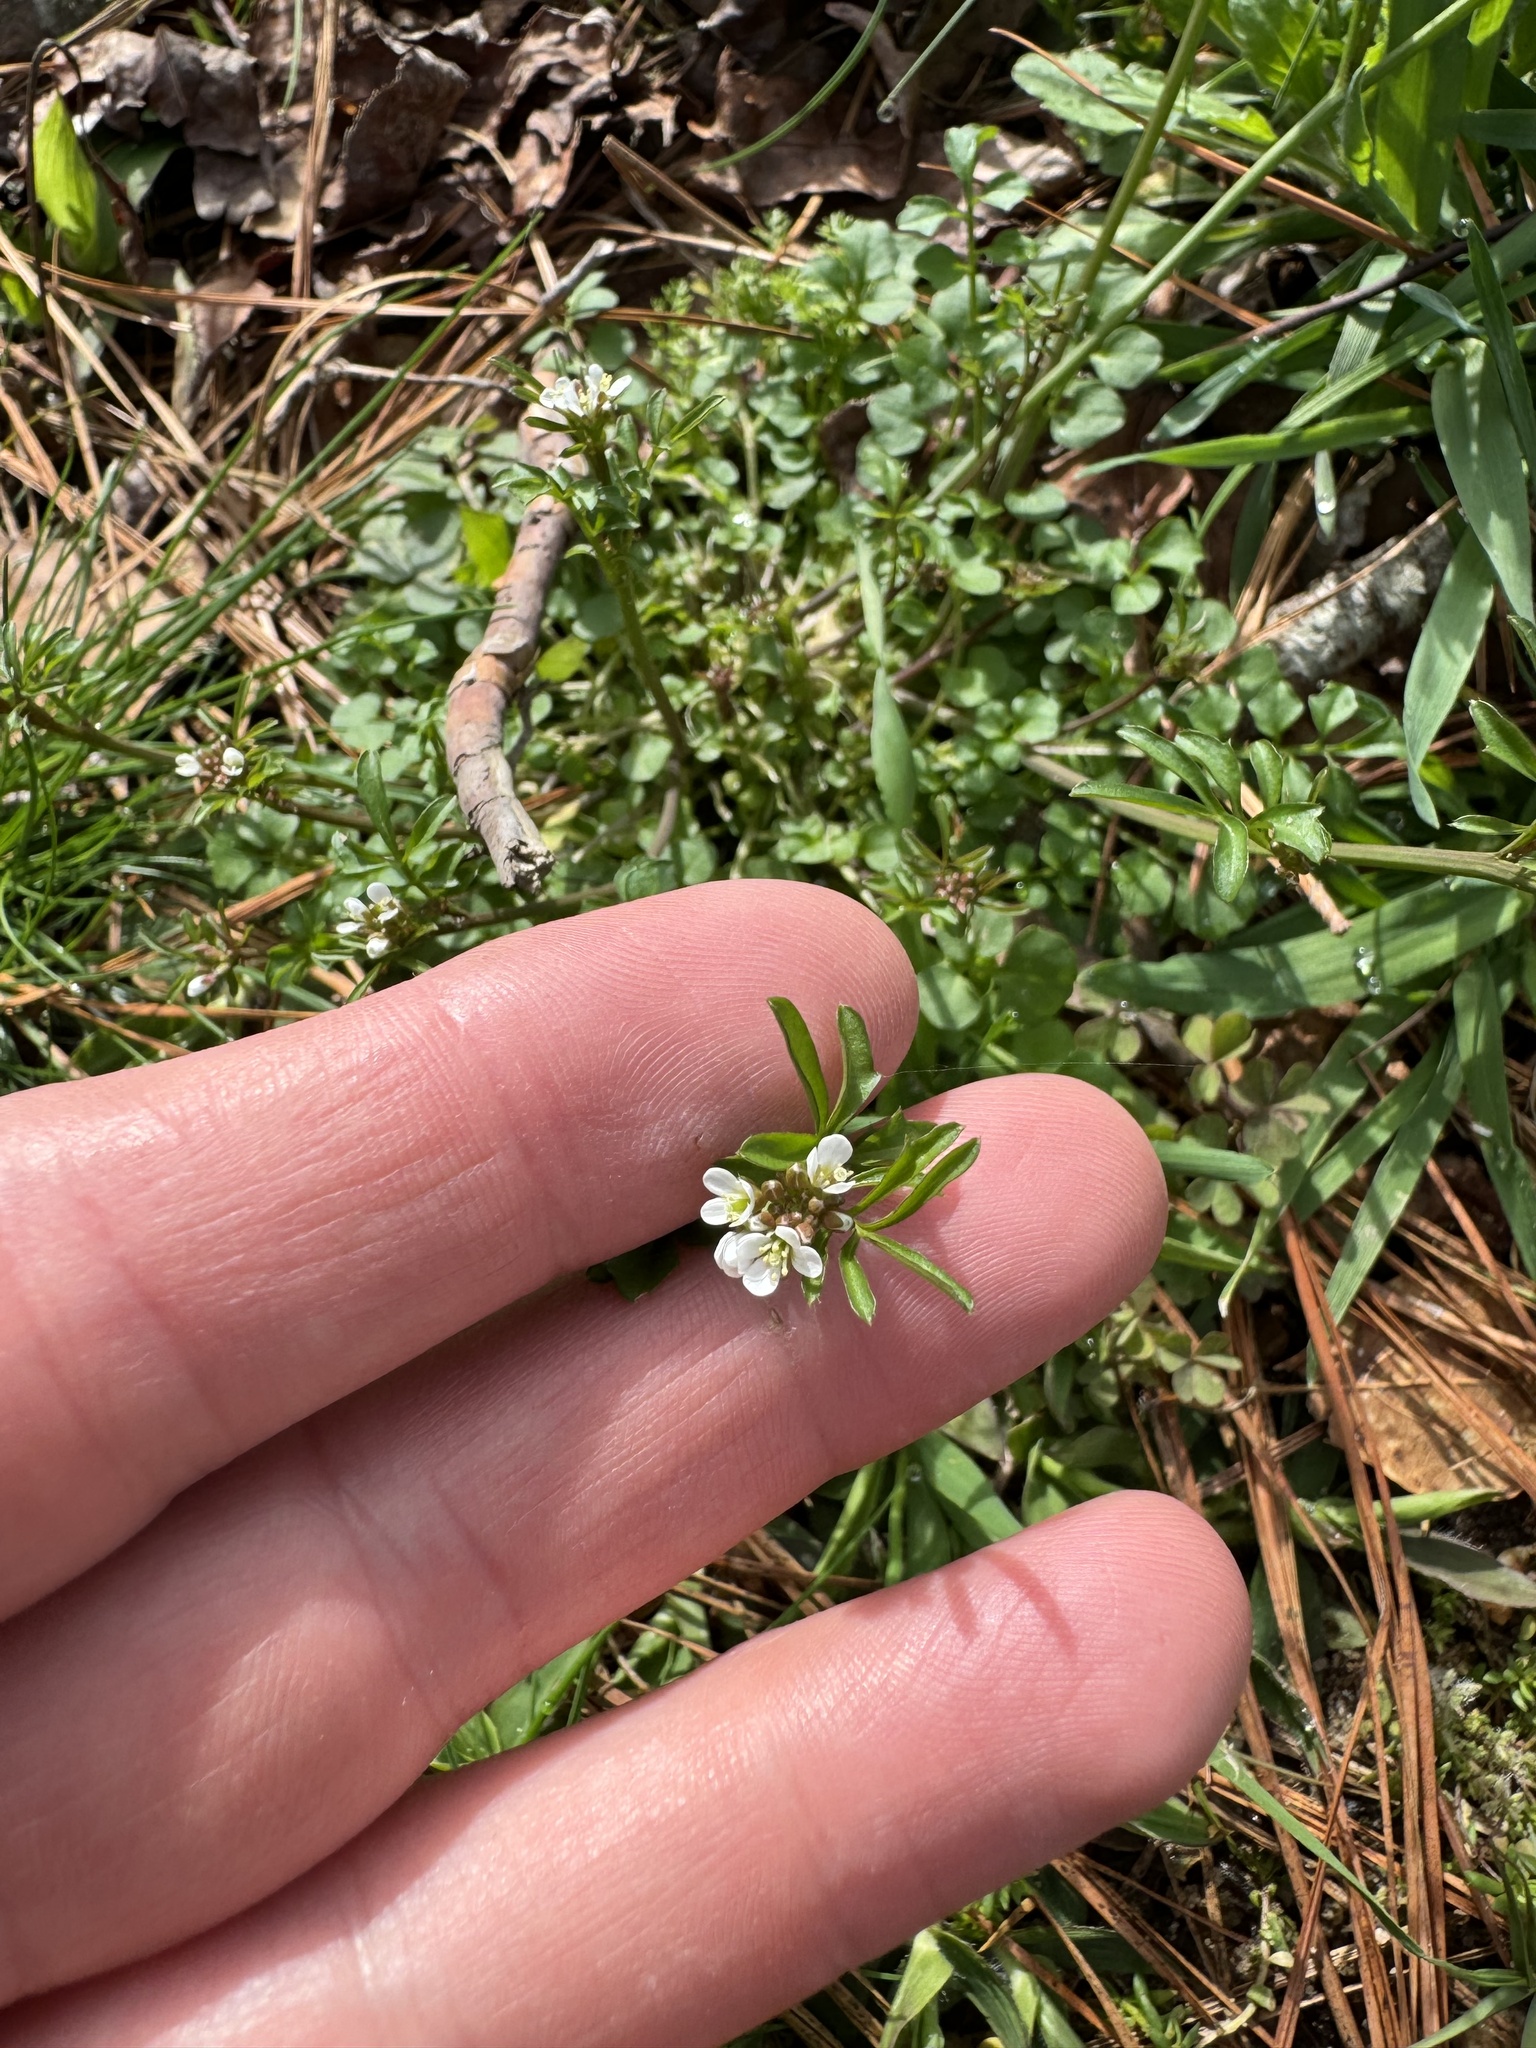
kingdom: Plantae
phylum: Tracheophyta
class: Magnoliopsida
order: Brassicales
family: Brassicaceae
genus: Cardamine
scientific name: Cardamine hirsuta
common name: Hairy bittercress
